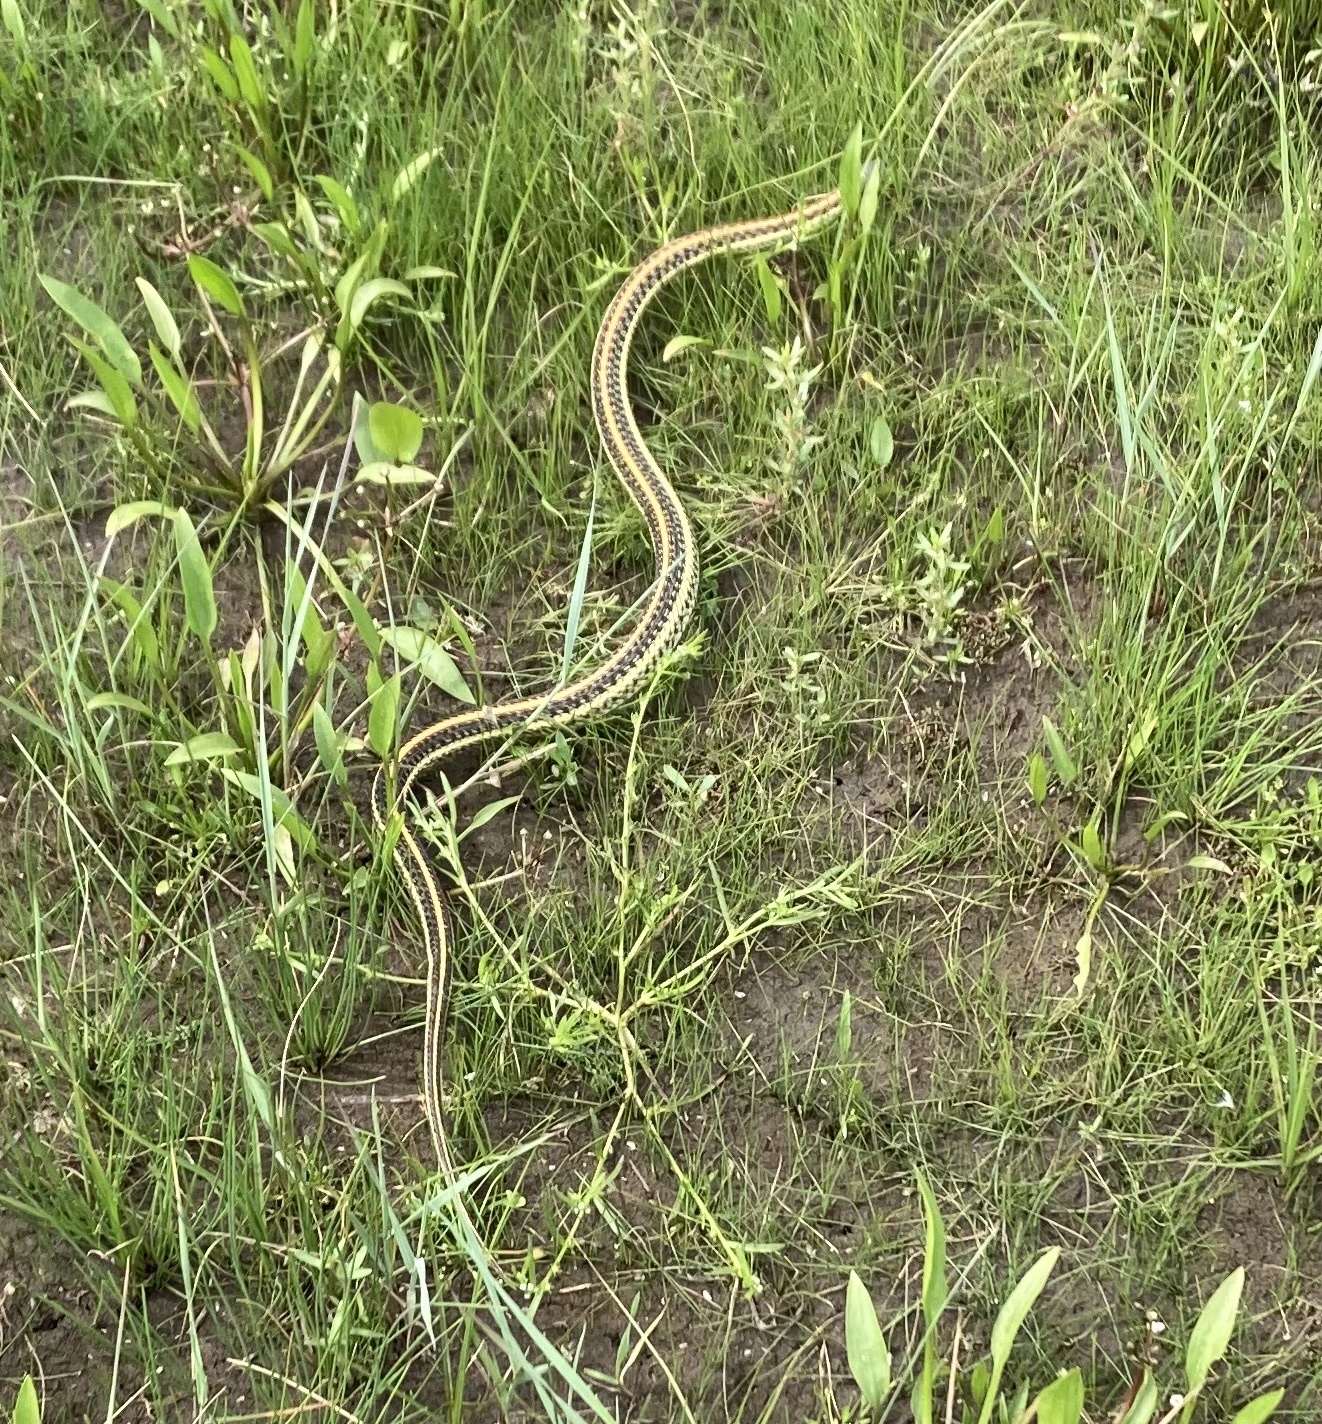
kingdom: Animalia
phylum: Chordata
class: Squamata
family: Colubridae
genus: Thamnophis
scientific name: Thamnophis radix
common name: Plains garter snake
